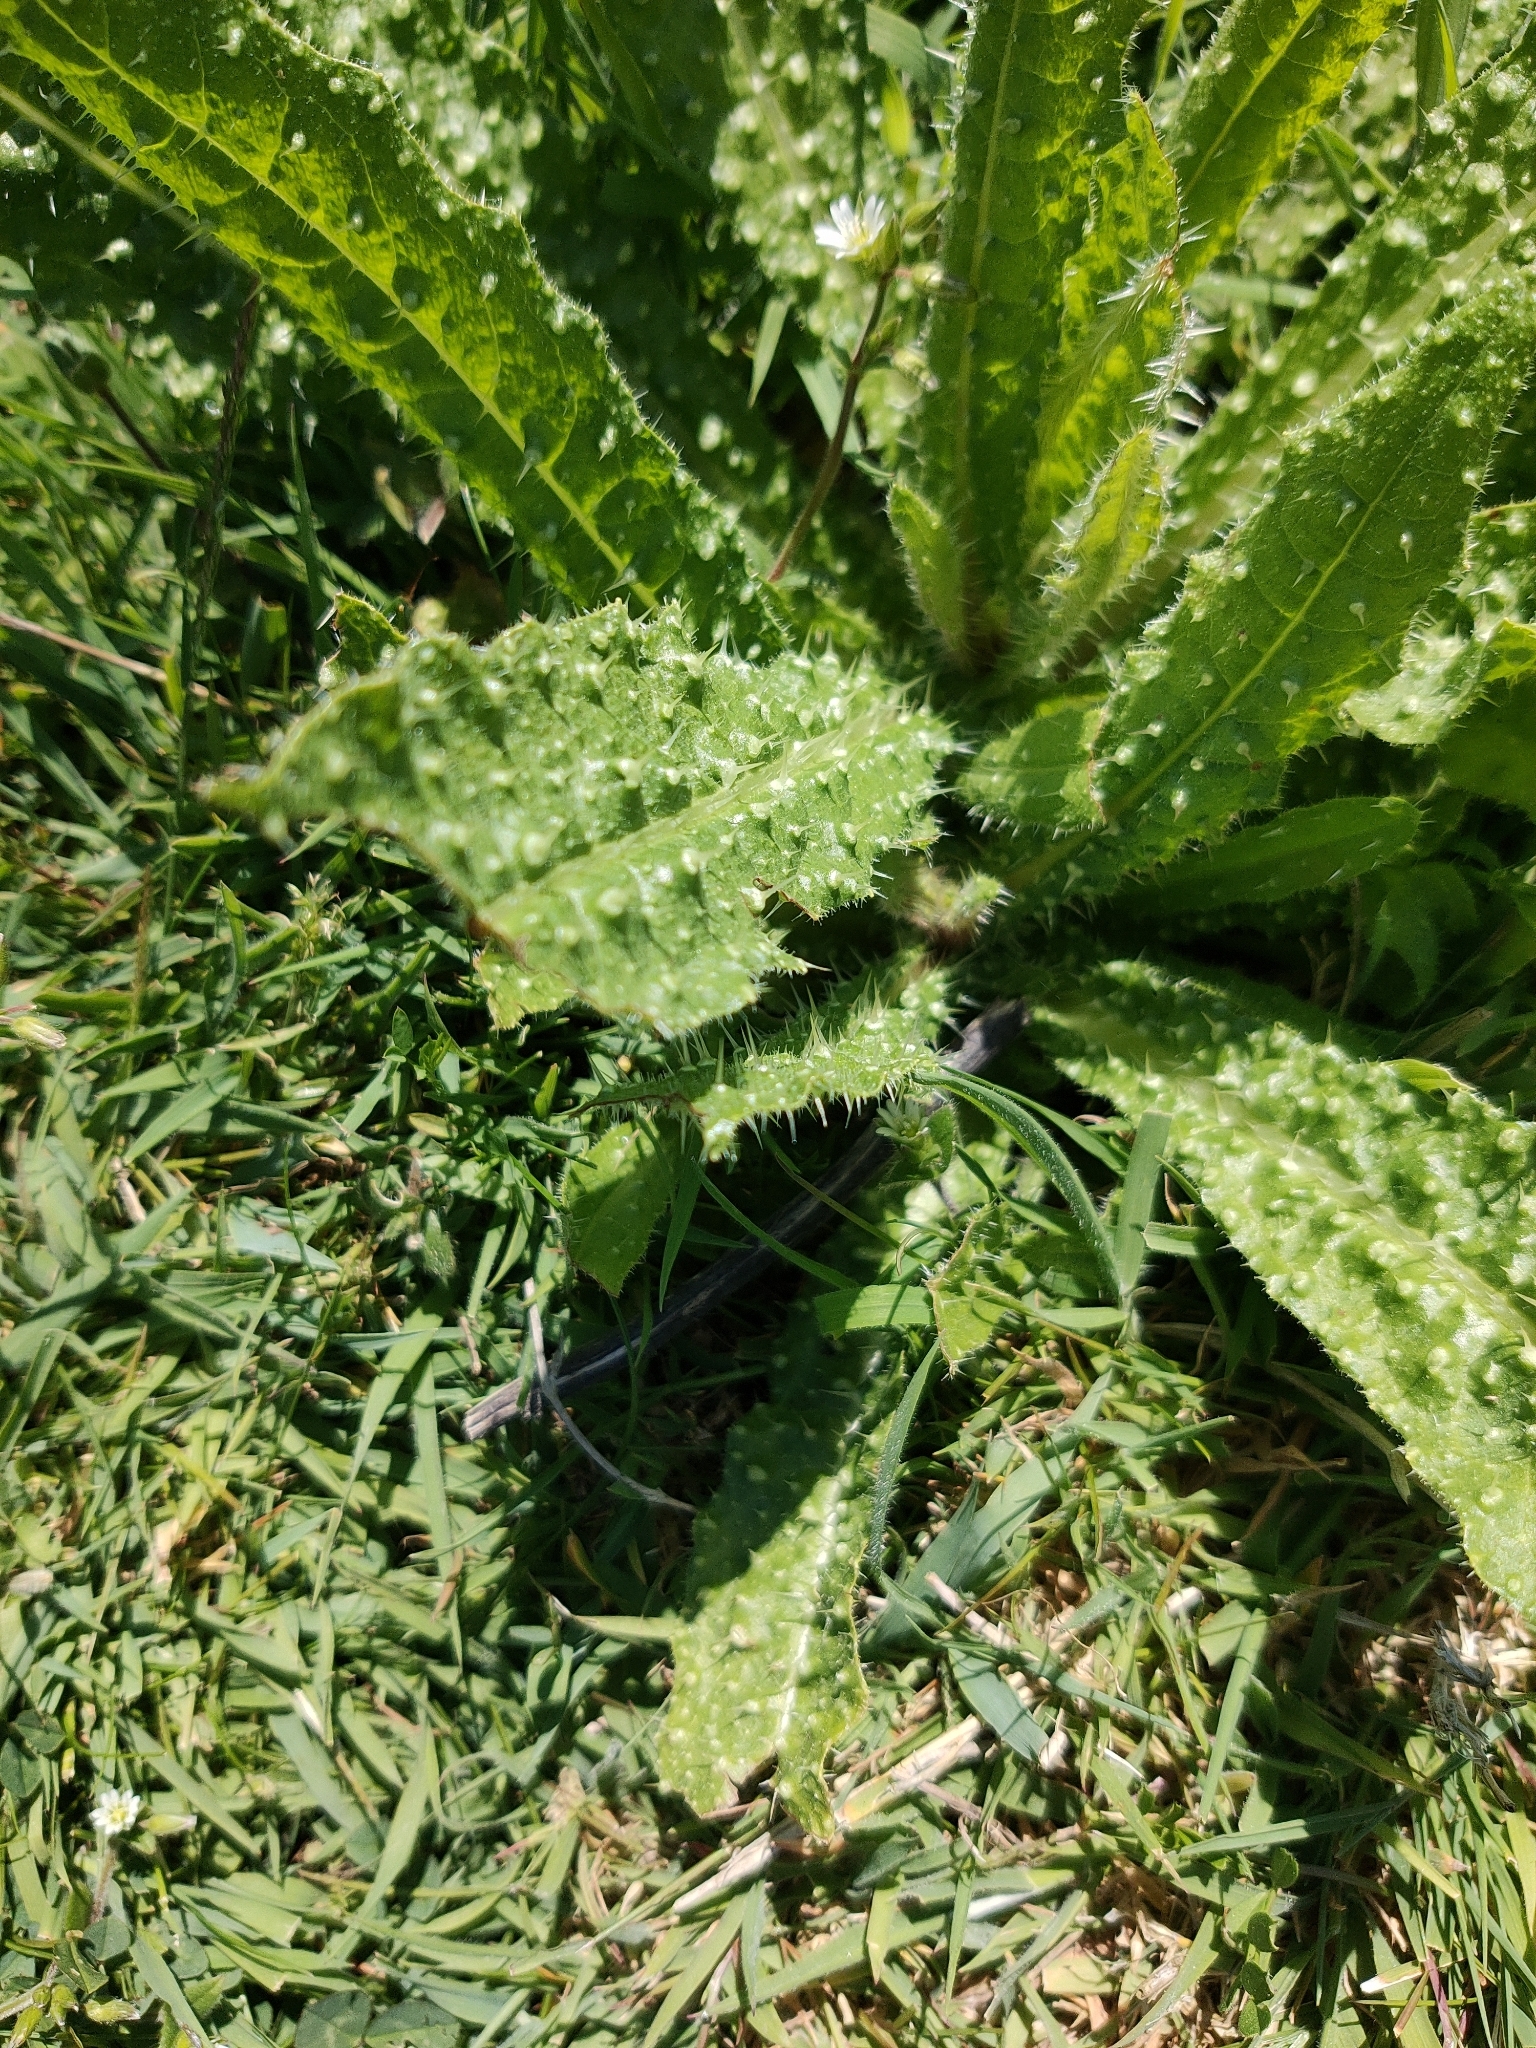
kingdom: Plantae
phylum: Tracheophyta
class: Magnoliopsida
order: Asterales
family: Asteraceae
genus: Helminthotheca
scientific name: Helminthotheca echioides
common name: Ox-tongue
